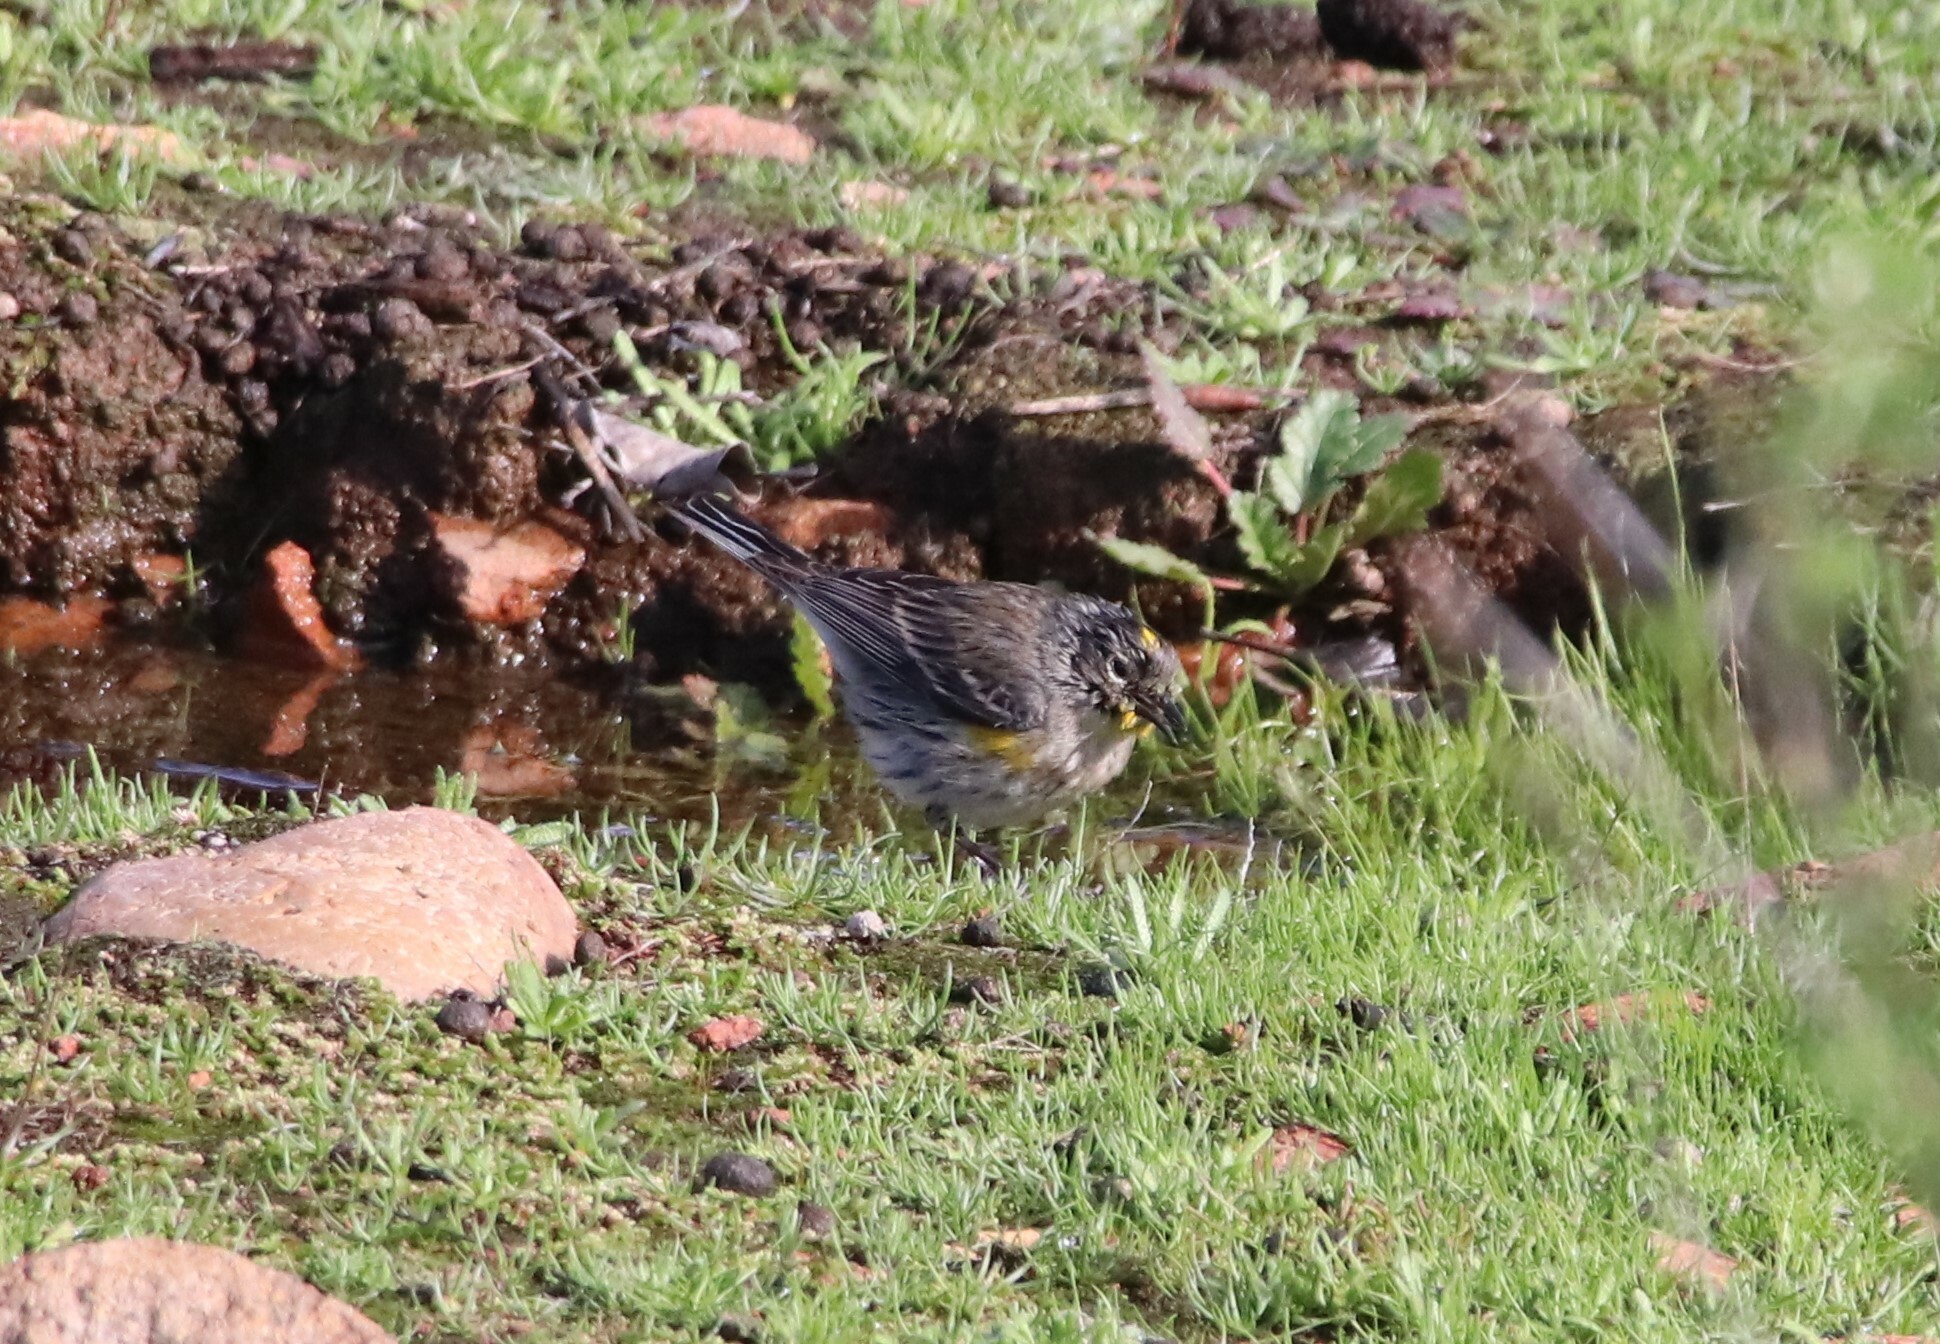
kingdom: Animalia
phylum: Chordata
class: Aves
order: Passeriformes
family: Parulidae
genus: Setophaga
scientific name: Setophaga coronata
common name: Myrtle warbler
